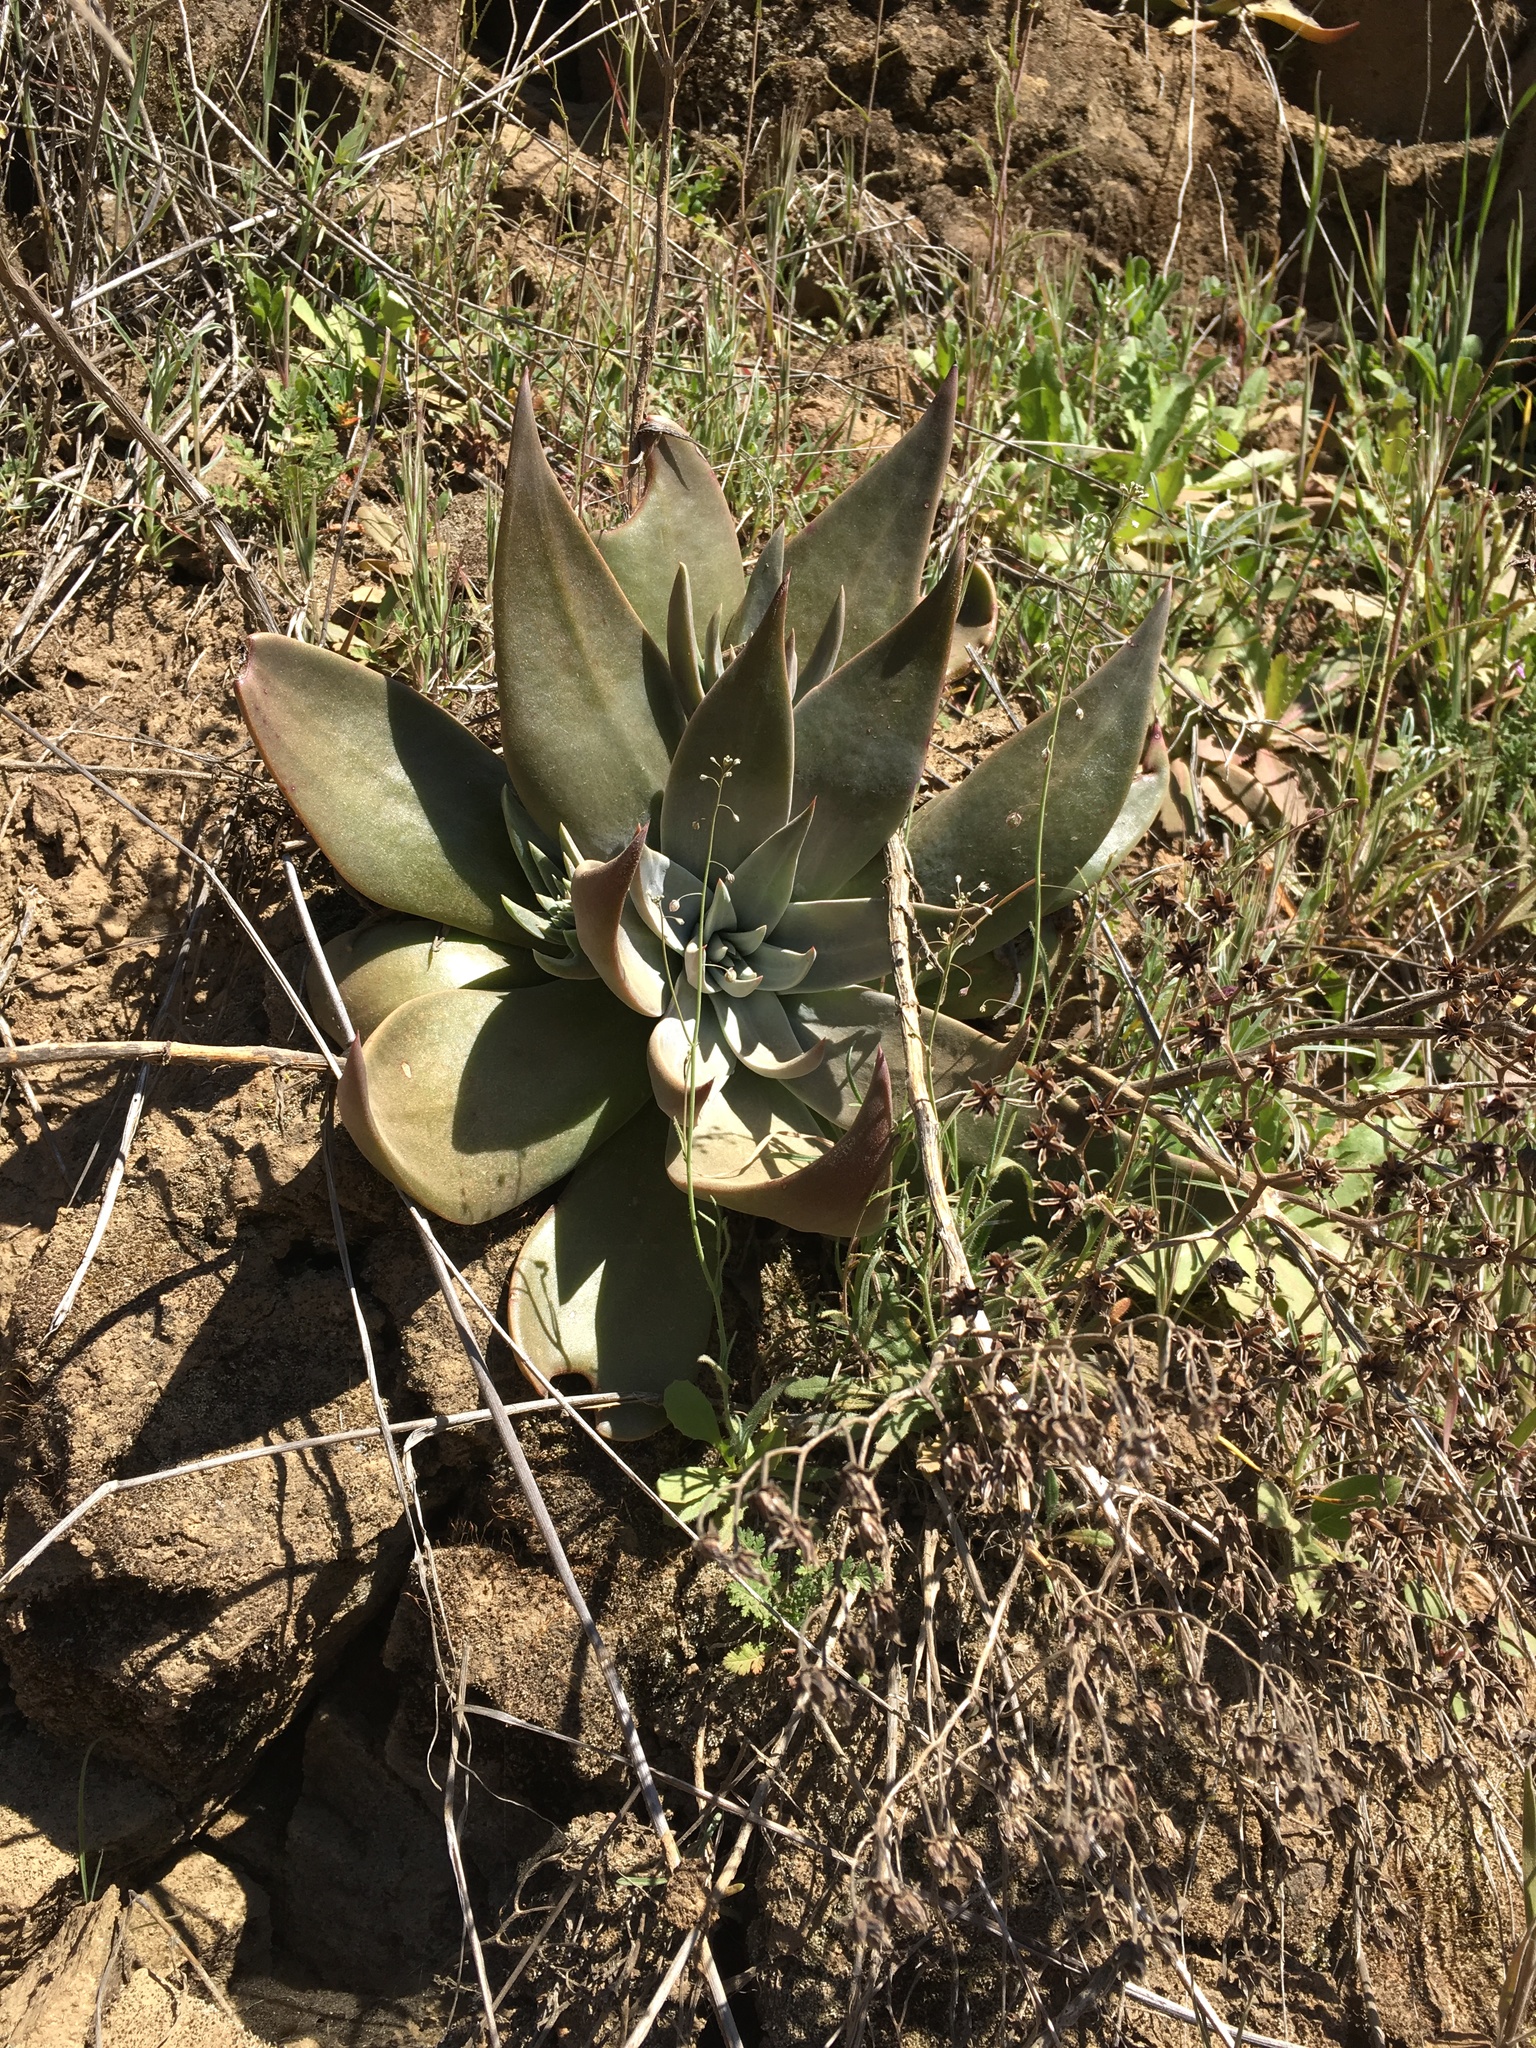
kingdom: Plantae
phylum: Tracheophyta
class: Magnoliopsida
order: Saxifragales
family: Crassulaceae
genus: Dudleya
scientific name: Dudleya cymosa
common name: Canyon dudleya
